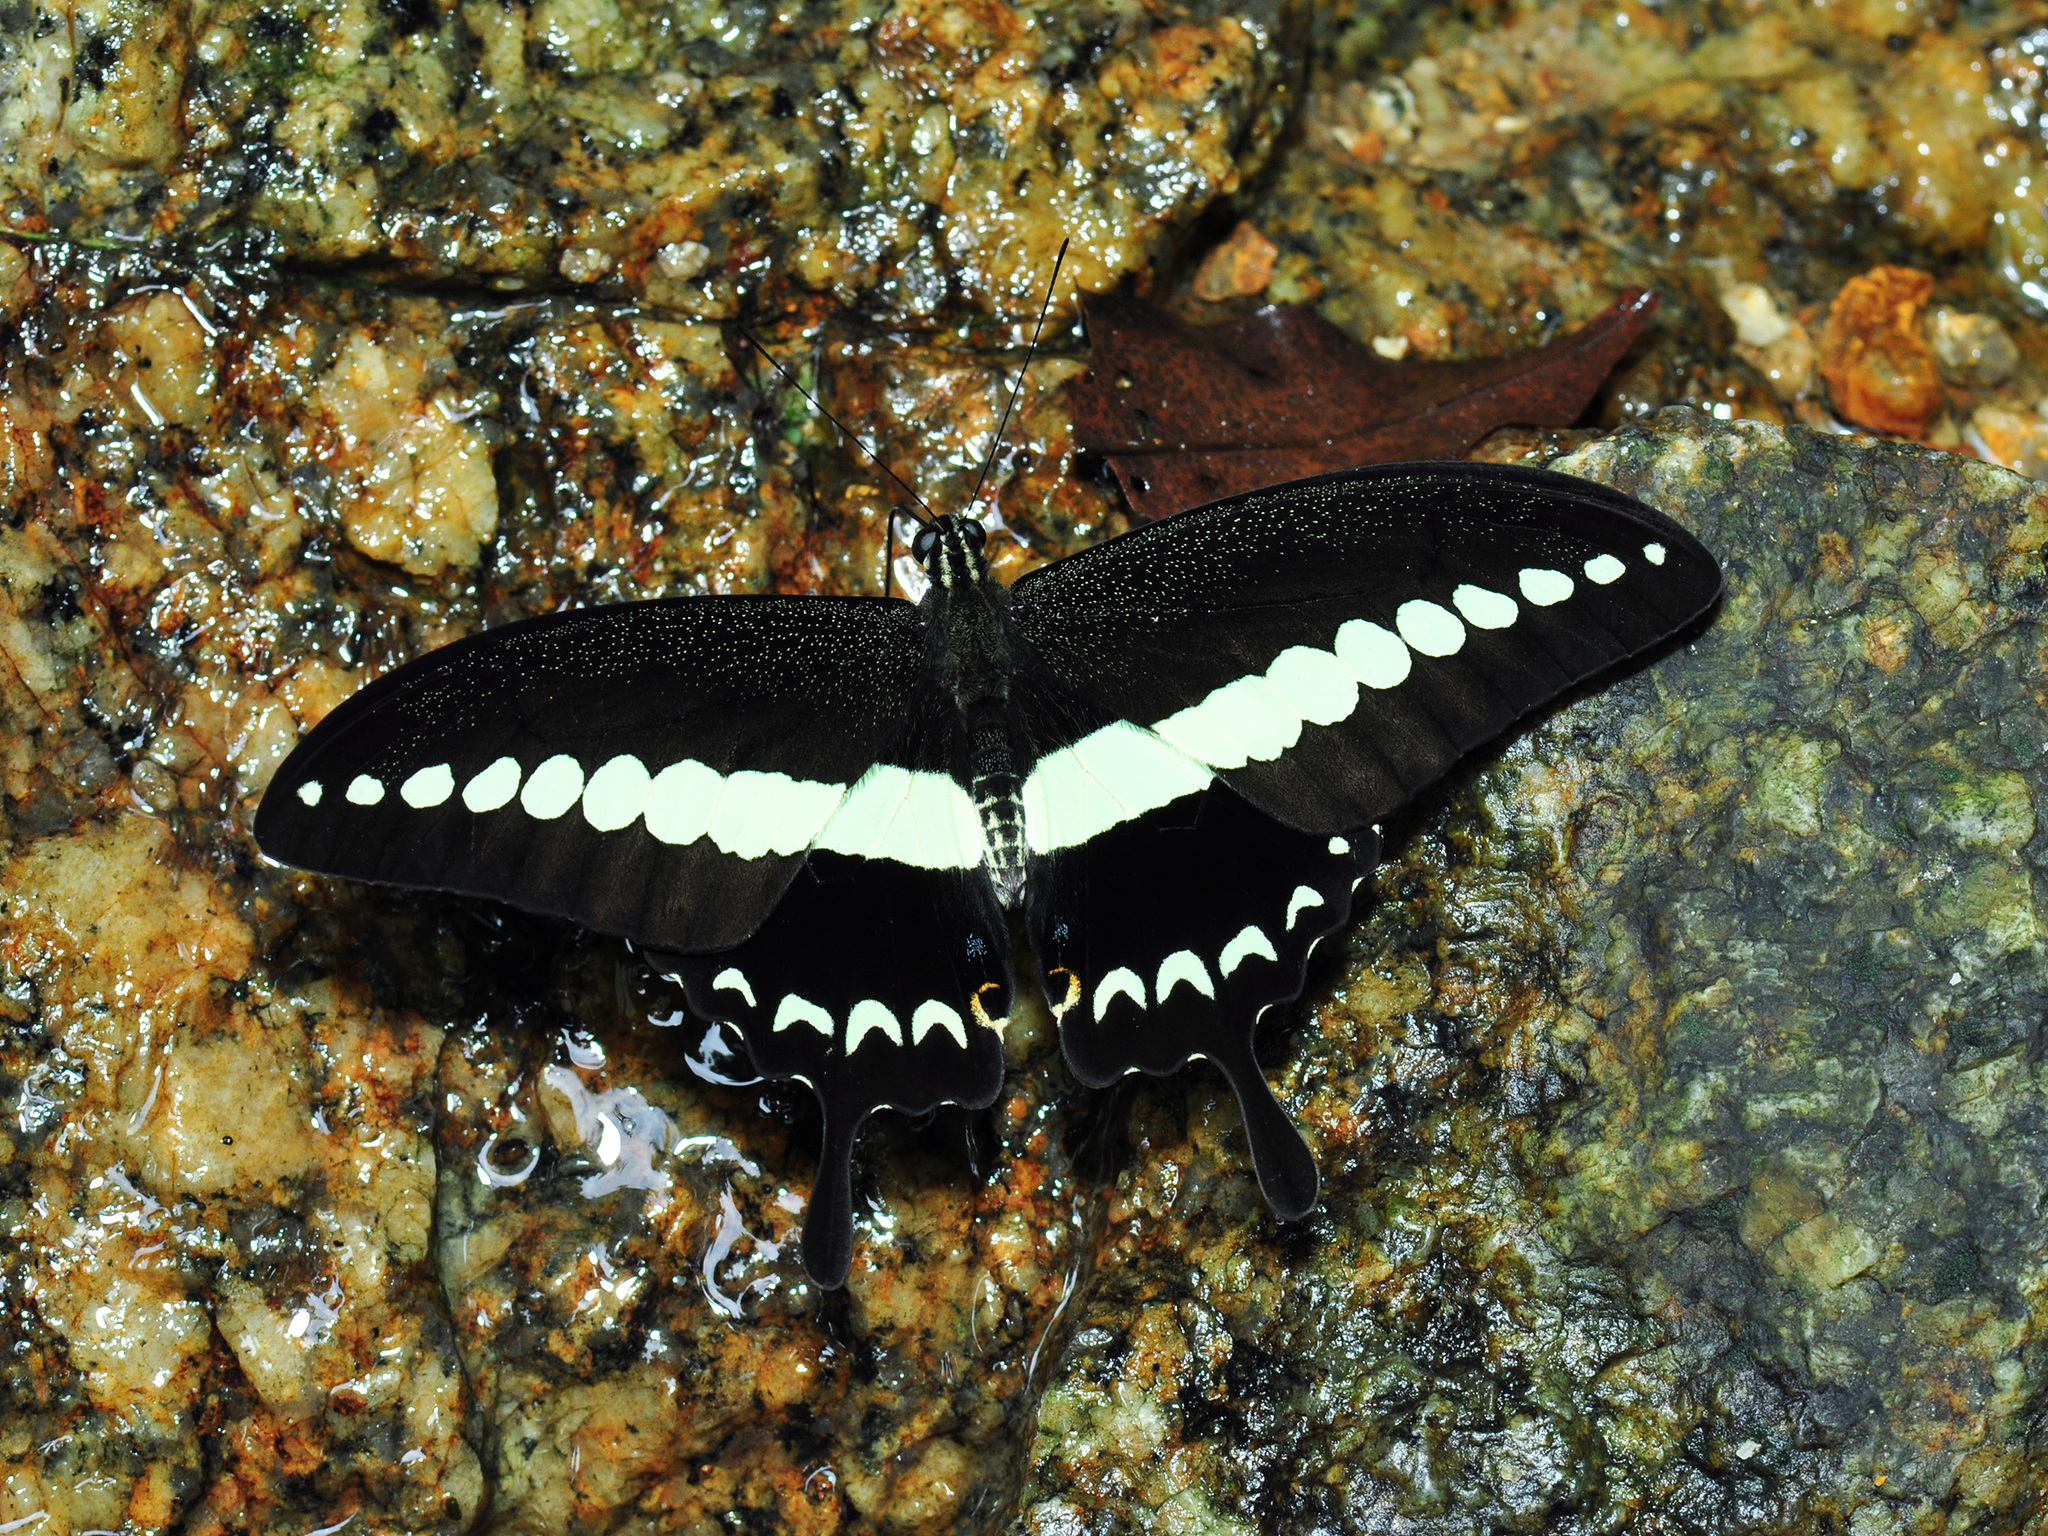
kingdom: Animalia
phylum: Arthropoda
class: Insecta
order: Lepidoptera
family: Papilionidae
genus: Papilio
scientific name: Papilio demolion
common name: Banded swallowtail
